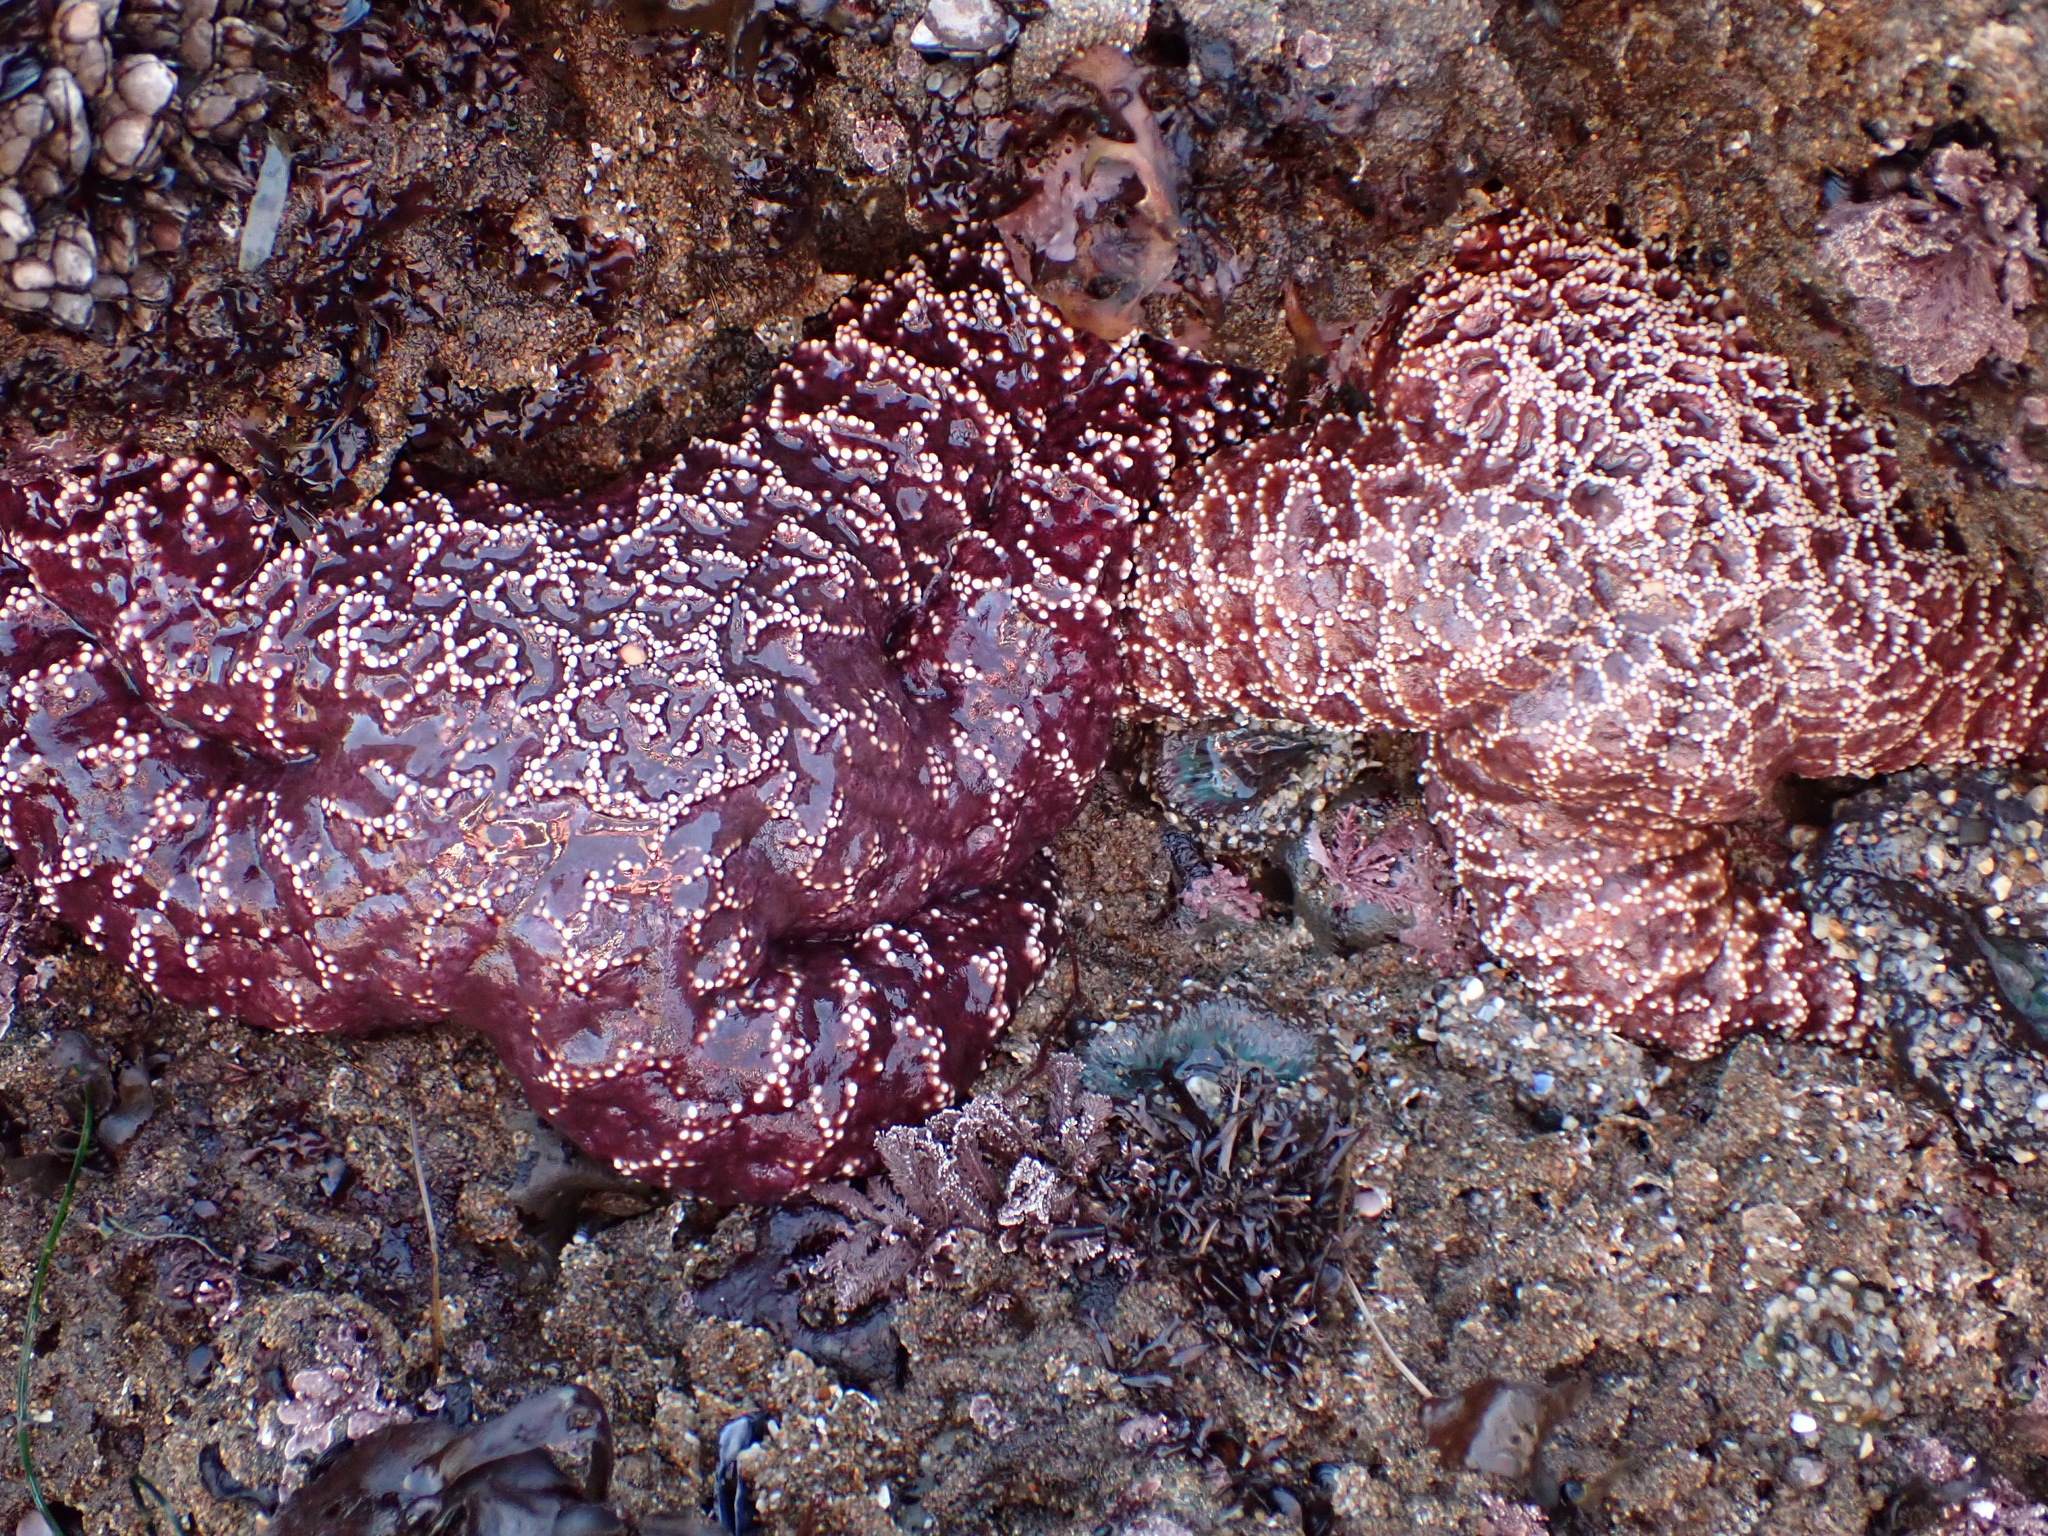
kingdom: Animalia
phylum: Echinodermata
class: Asteroidea
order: Forcipulatida
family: Asteriidae
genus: Pisaster
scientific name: Pisaster ochraceus
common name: Ochre stars
